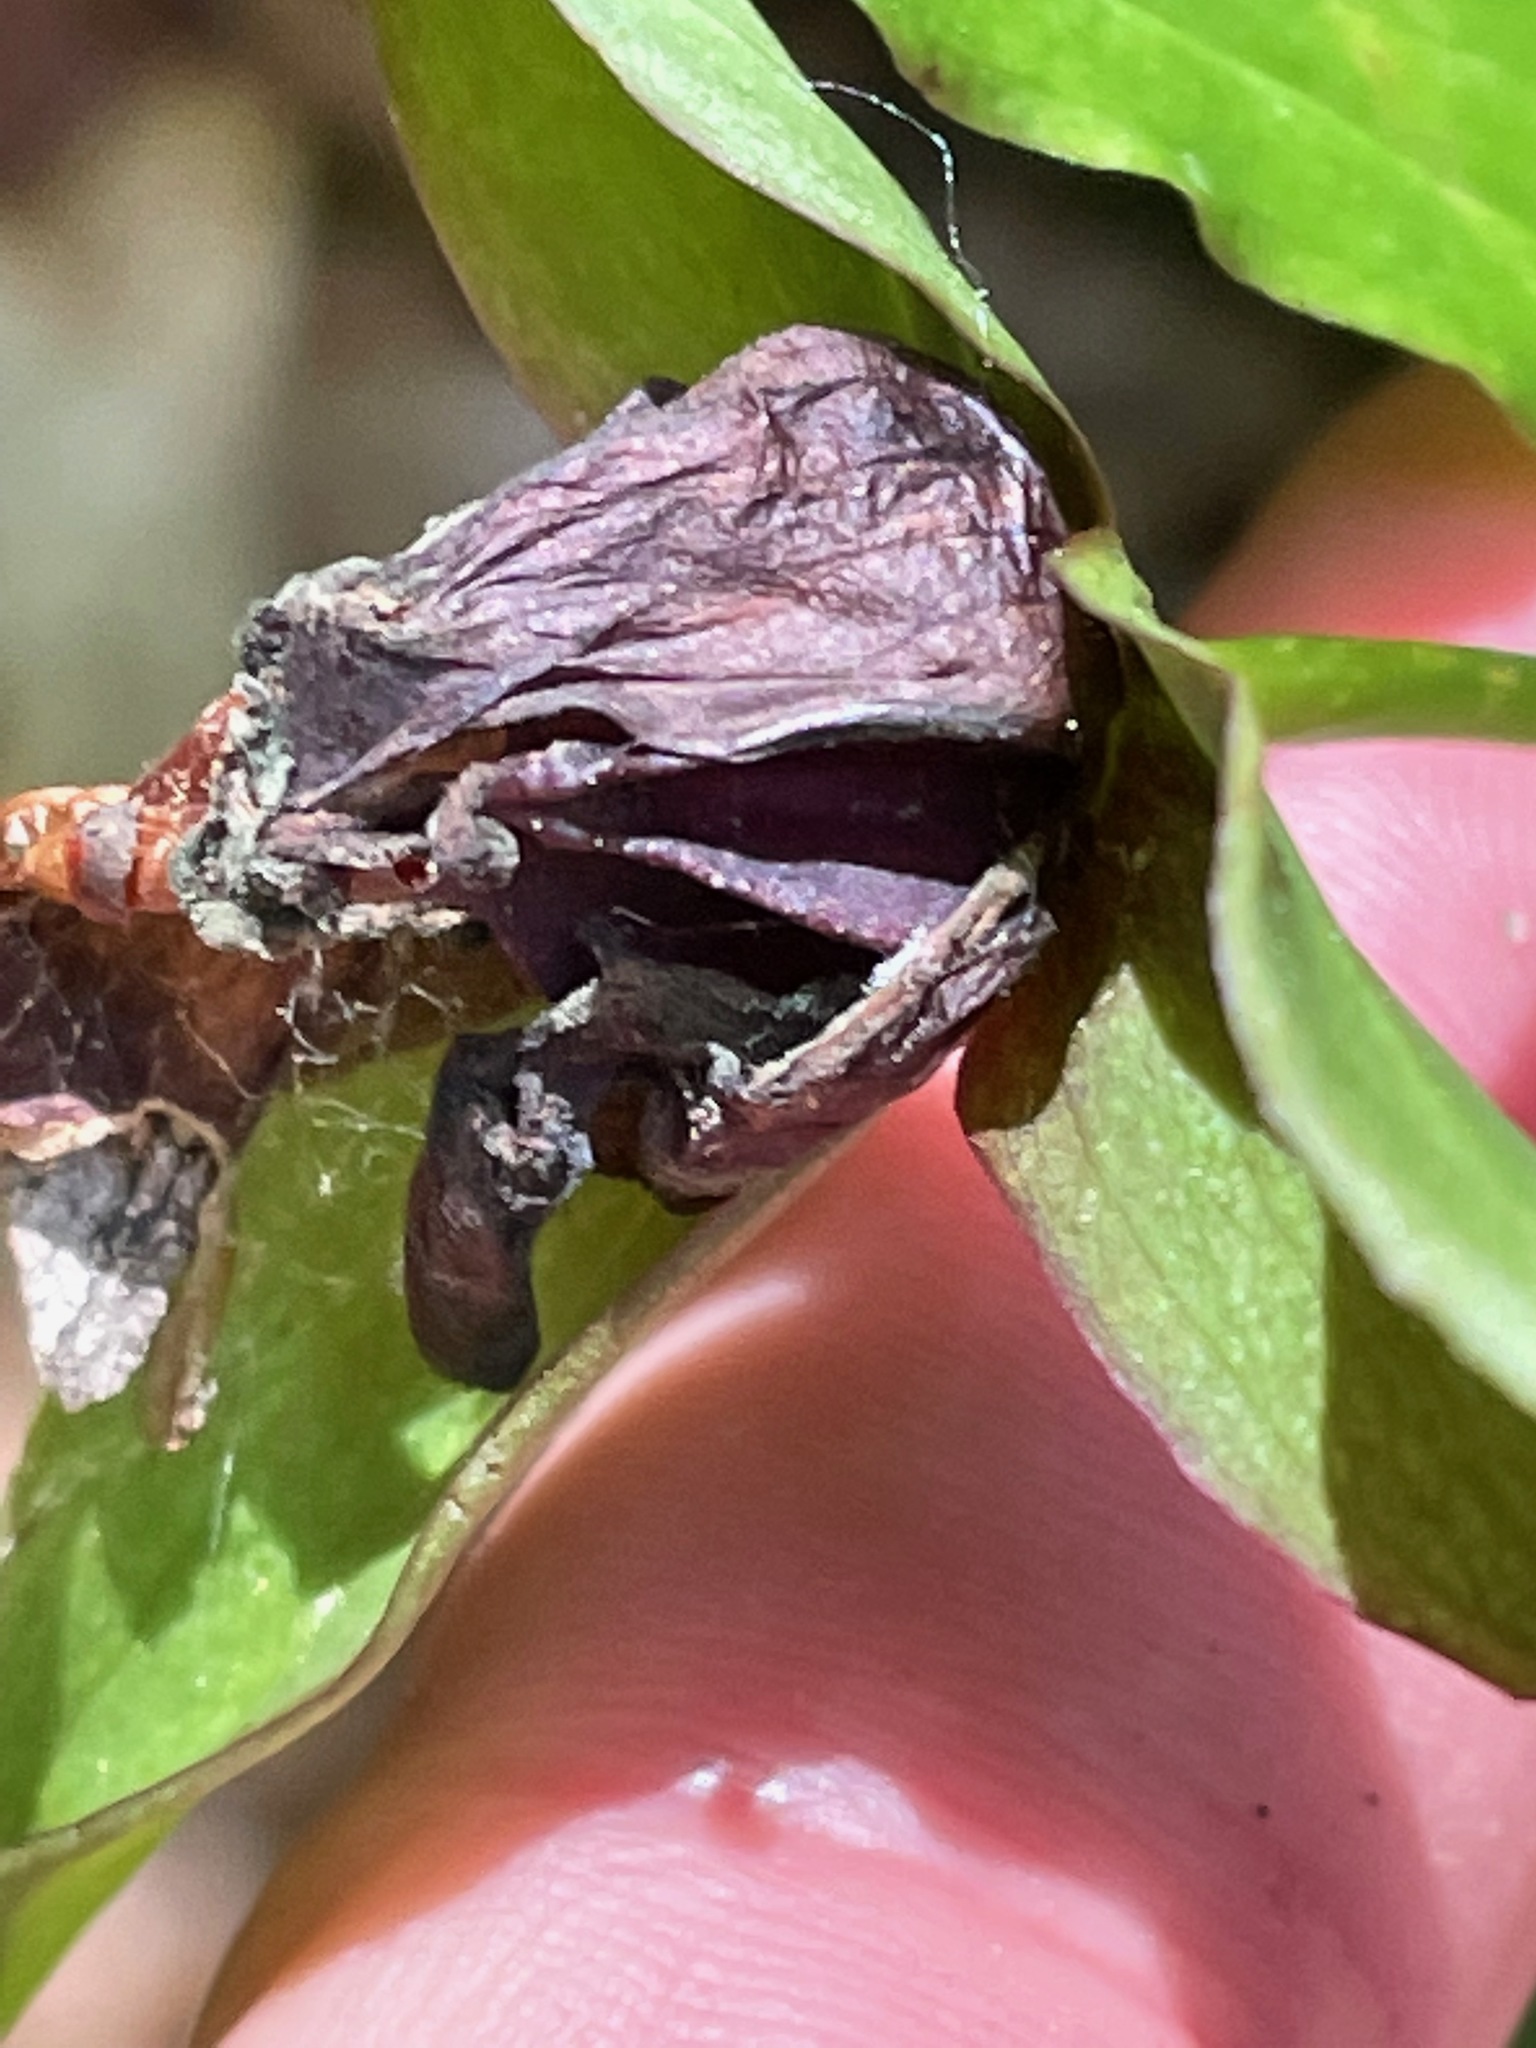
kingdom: Plantae
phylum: Tracheophyta
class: Liliopsida
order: Liliales
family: Melanthiaceae
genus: Trillium
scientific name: Trillium erectum
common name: Purple trillium
